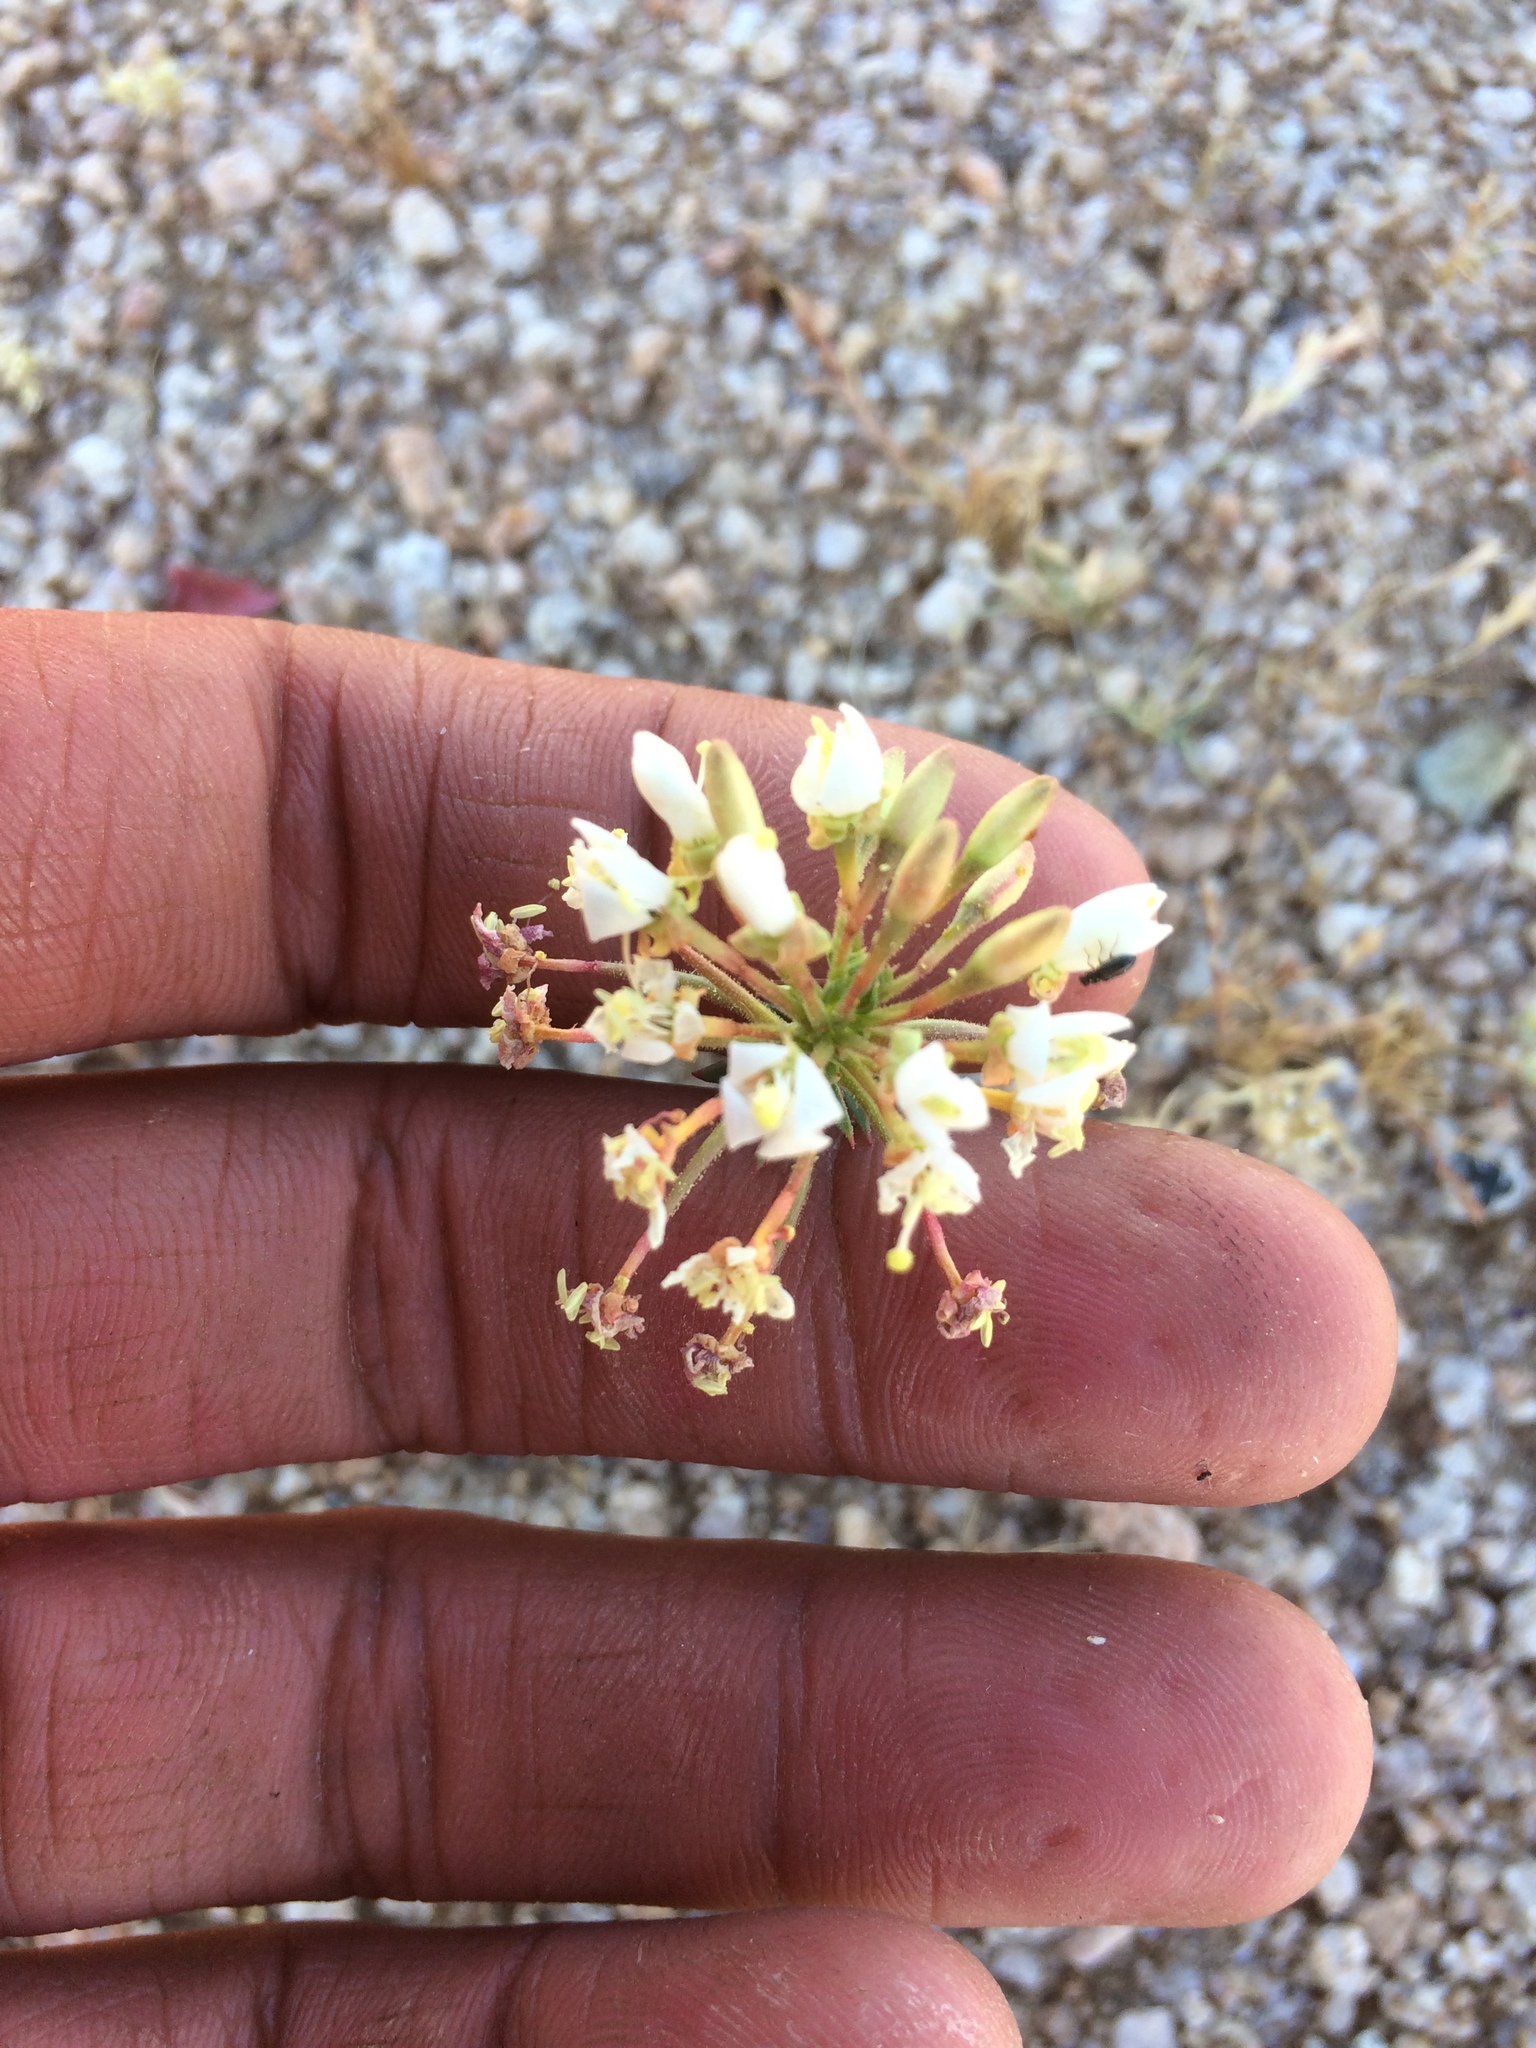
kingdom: Plantae
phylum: Tracheophyta
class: Magnoliopsida
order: Myrtales
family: Onagraceae
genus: Eremothera
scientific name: Eremothera boothii
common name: Booth's evening primrose
